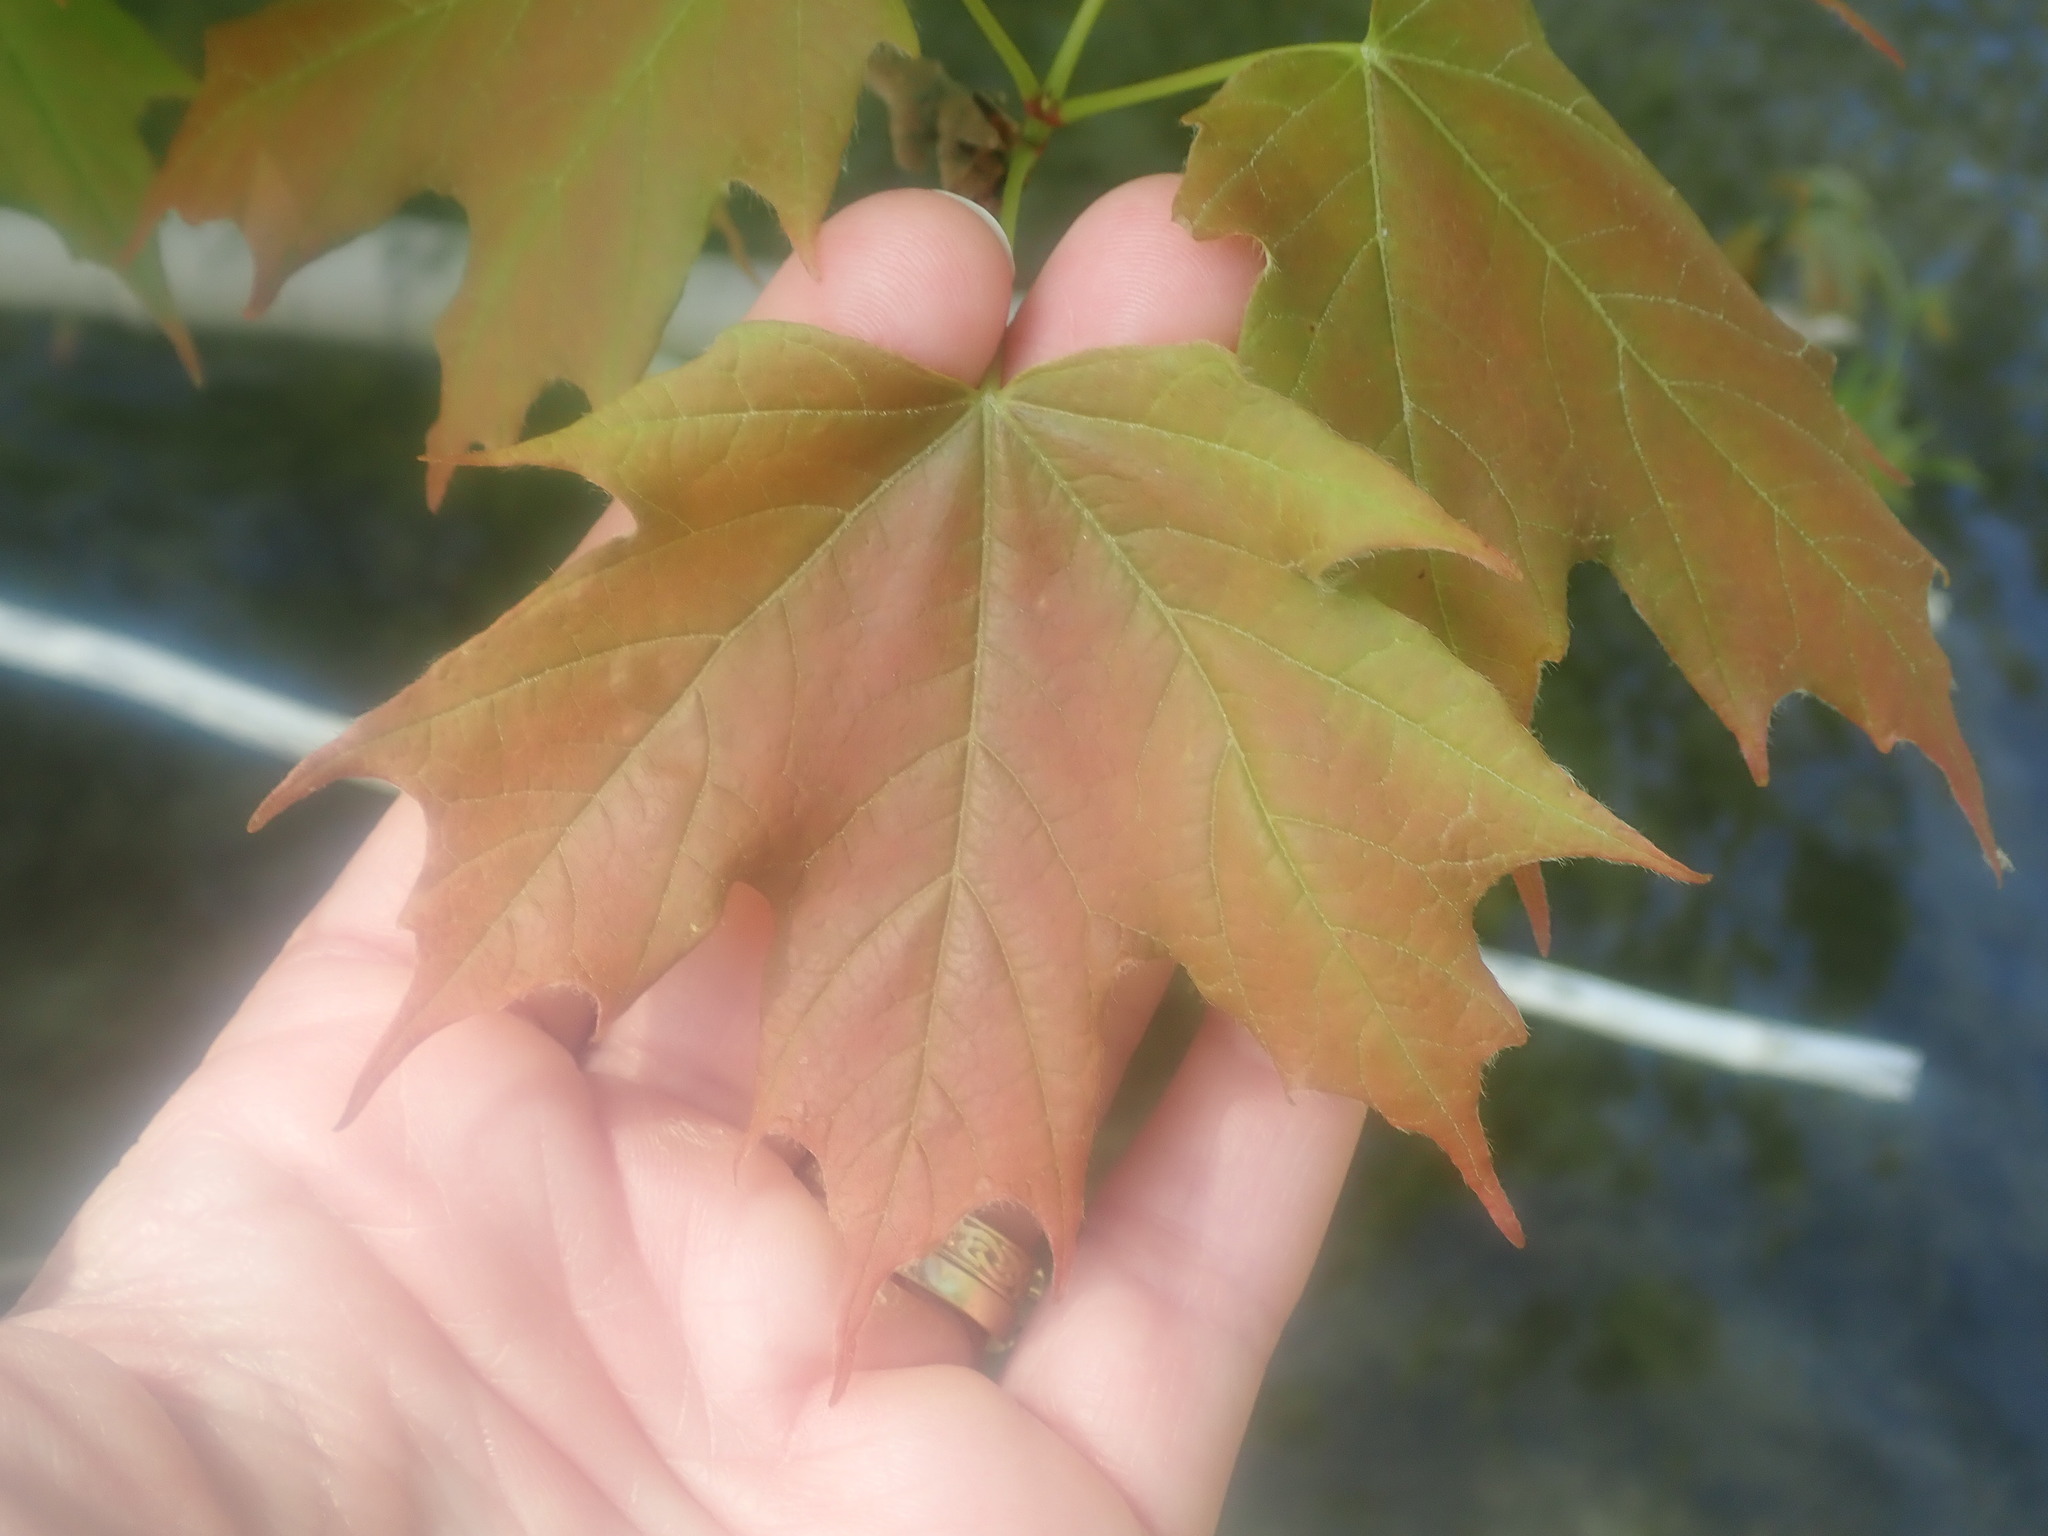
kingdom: Plantae
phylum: Tracheophyta
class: Magnoliopsida
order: Sapindales
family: Sapindaceae
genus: Acer
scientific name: Acer platanoides
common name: Norway maple
